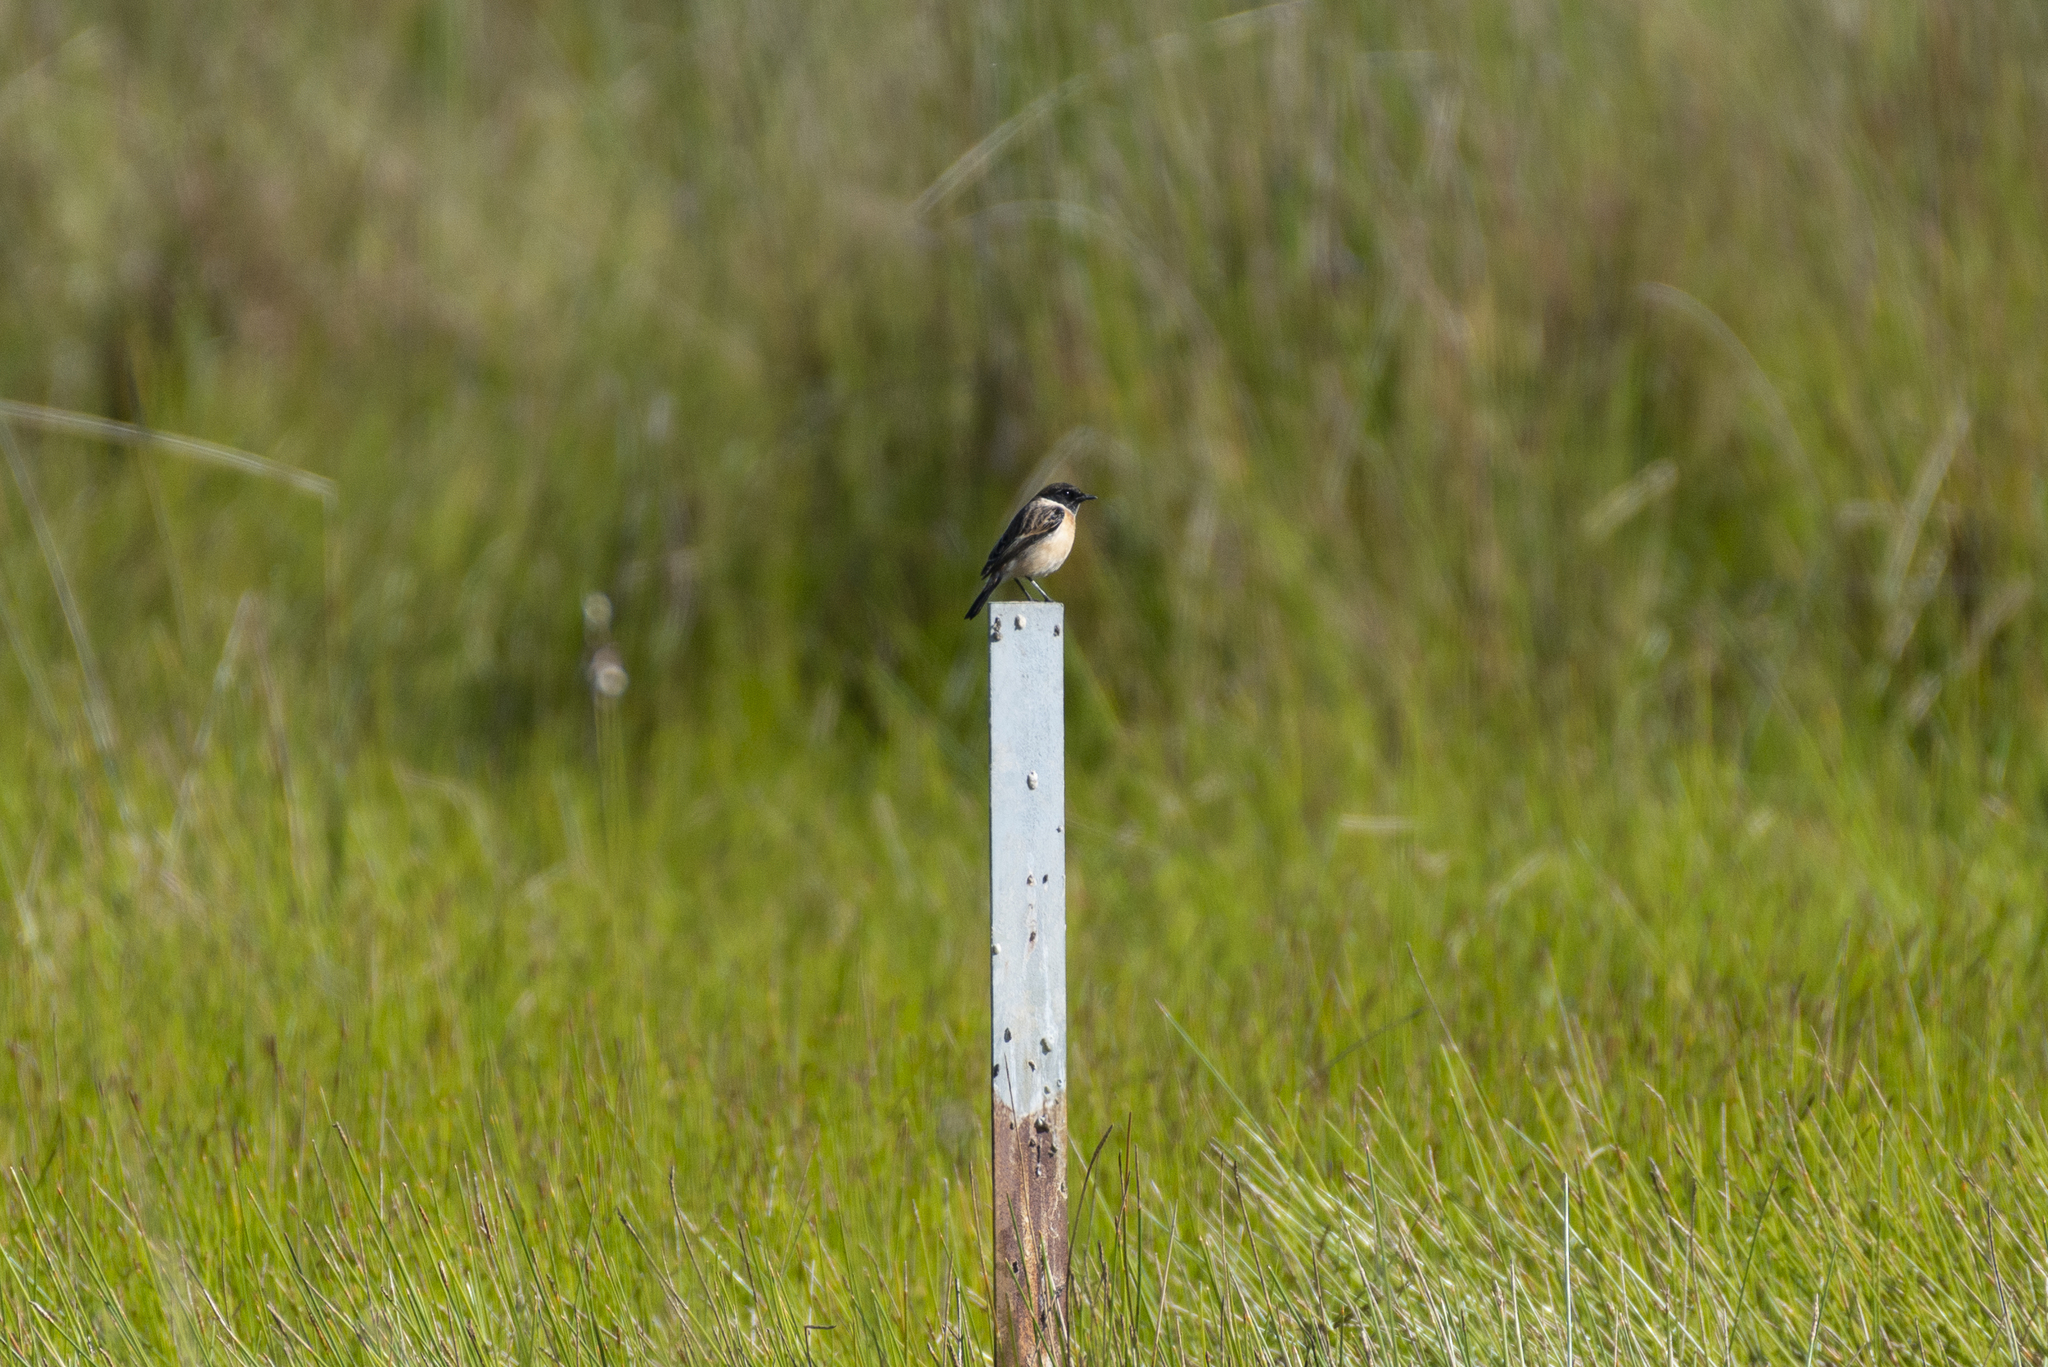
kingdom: Animalia
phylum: Chordata
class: Aves
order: Passeriformes
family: Muscicapidae
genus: Saxicola
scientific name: Saxicola stejnegeri
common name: Stejneger's stonechat
